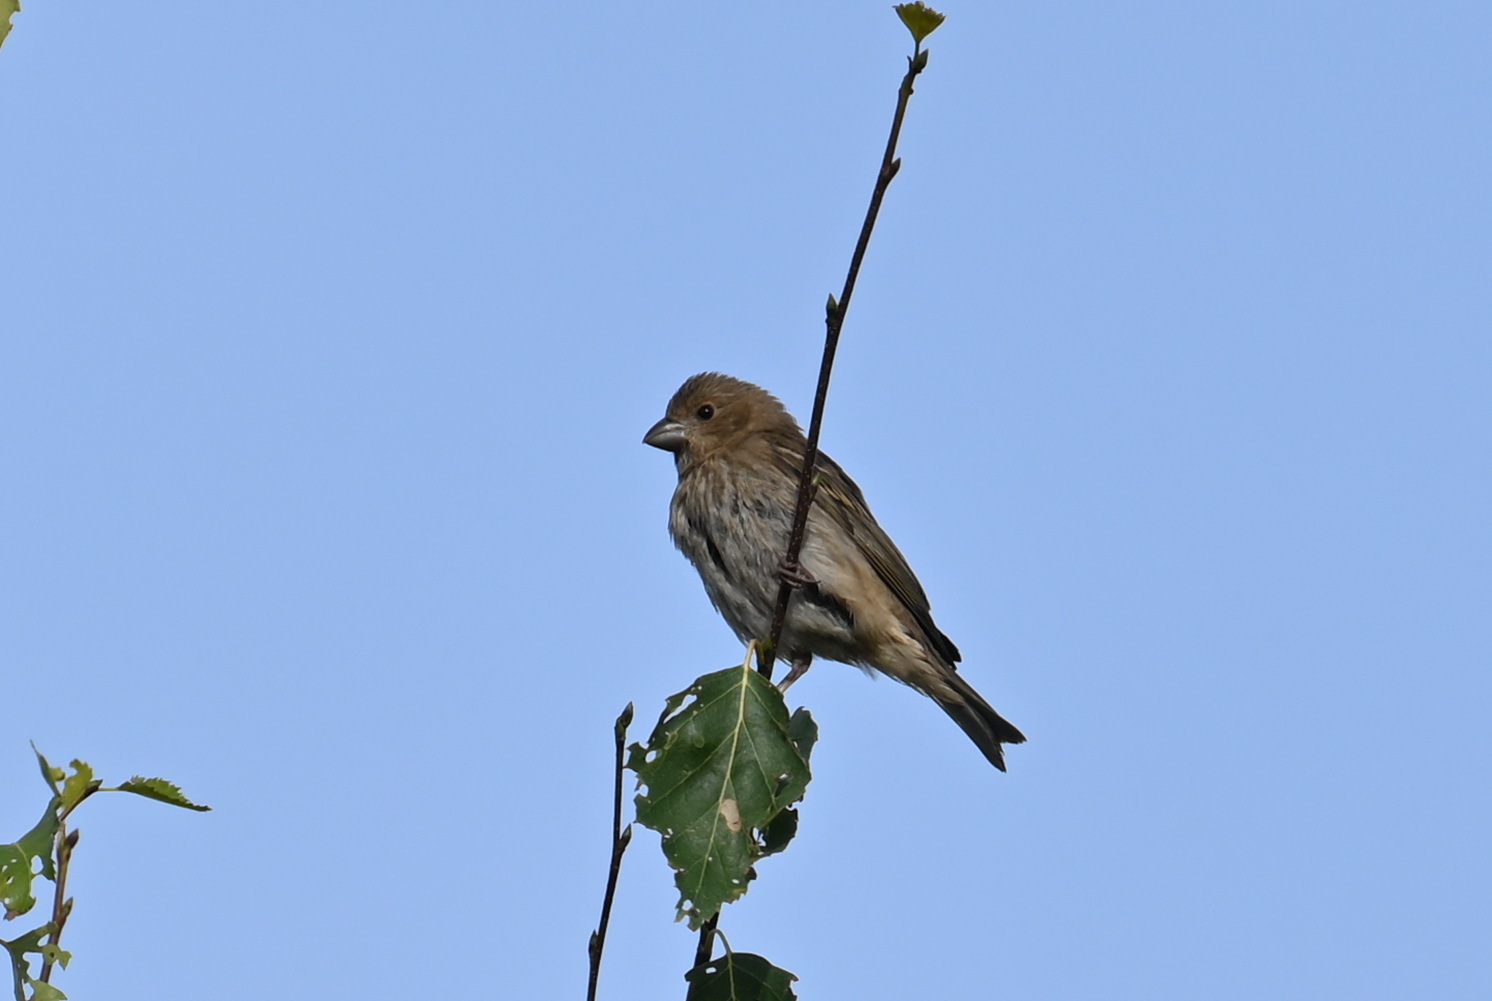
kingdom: Animalia
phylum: Chordata
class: Aves
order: Passeriformes
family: Fringillidae
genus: Carpodacus
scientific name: Carpodacus erythrinus
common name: Common rosefinch
